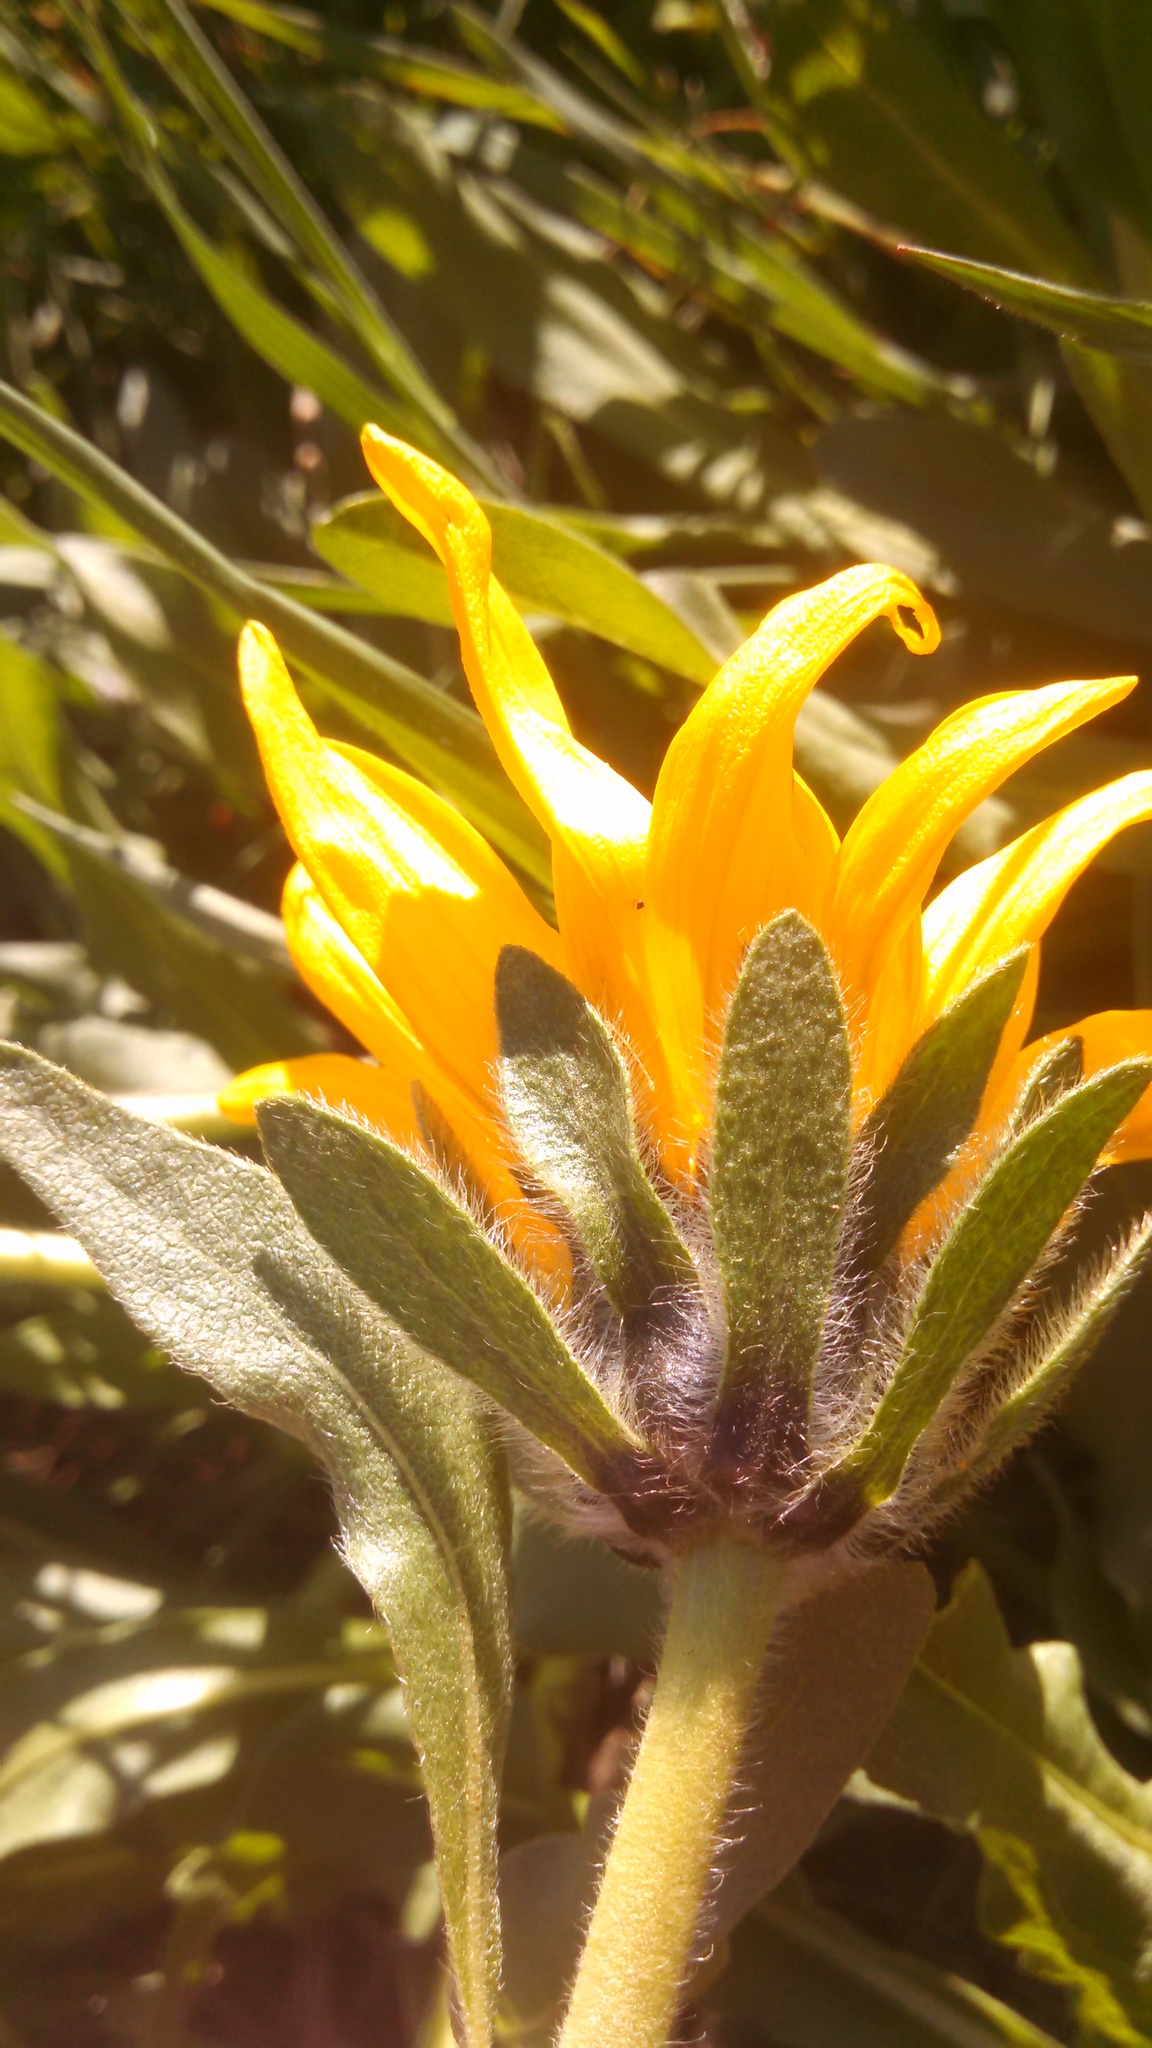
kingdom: Plantae
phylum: Tracheophyta
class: Magnoliopsida
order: Asterales
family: Asteraceae
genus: Wyethia
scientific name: Wyethia angustifolia
